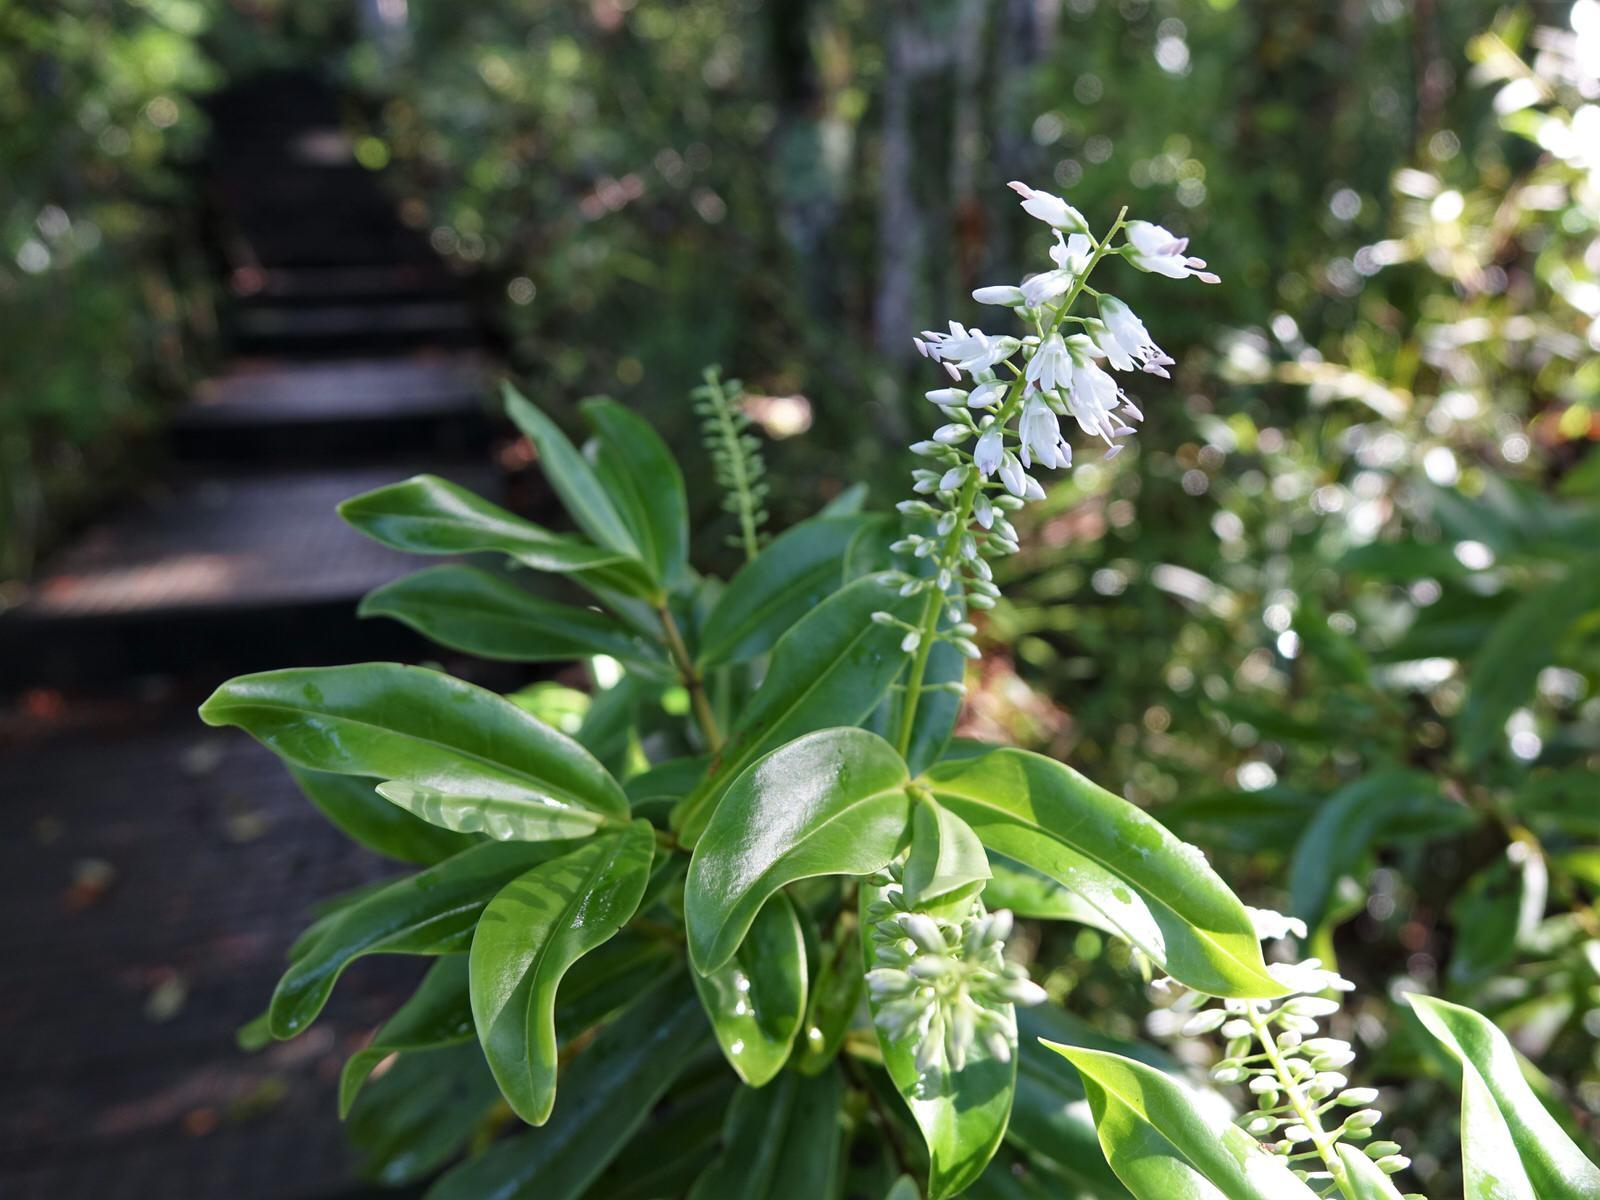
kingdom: Plantae
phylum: Tracheophyta
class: Magnoliopsida
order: Lamiales
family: Plantaginaceae
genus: Veronica
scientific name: Veronica macrocarpa
